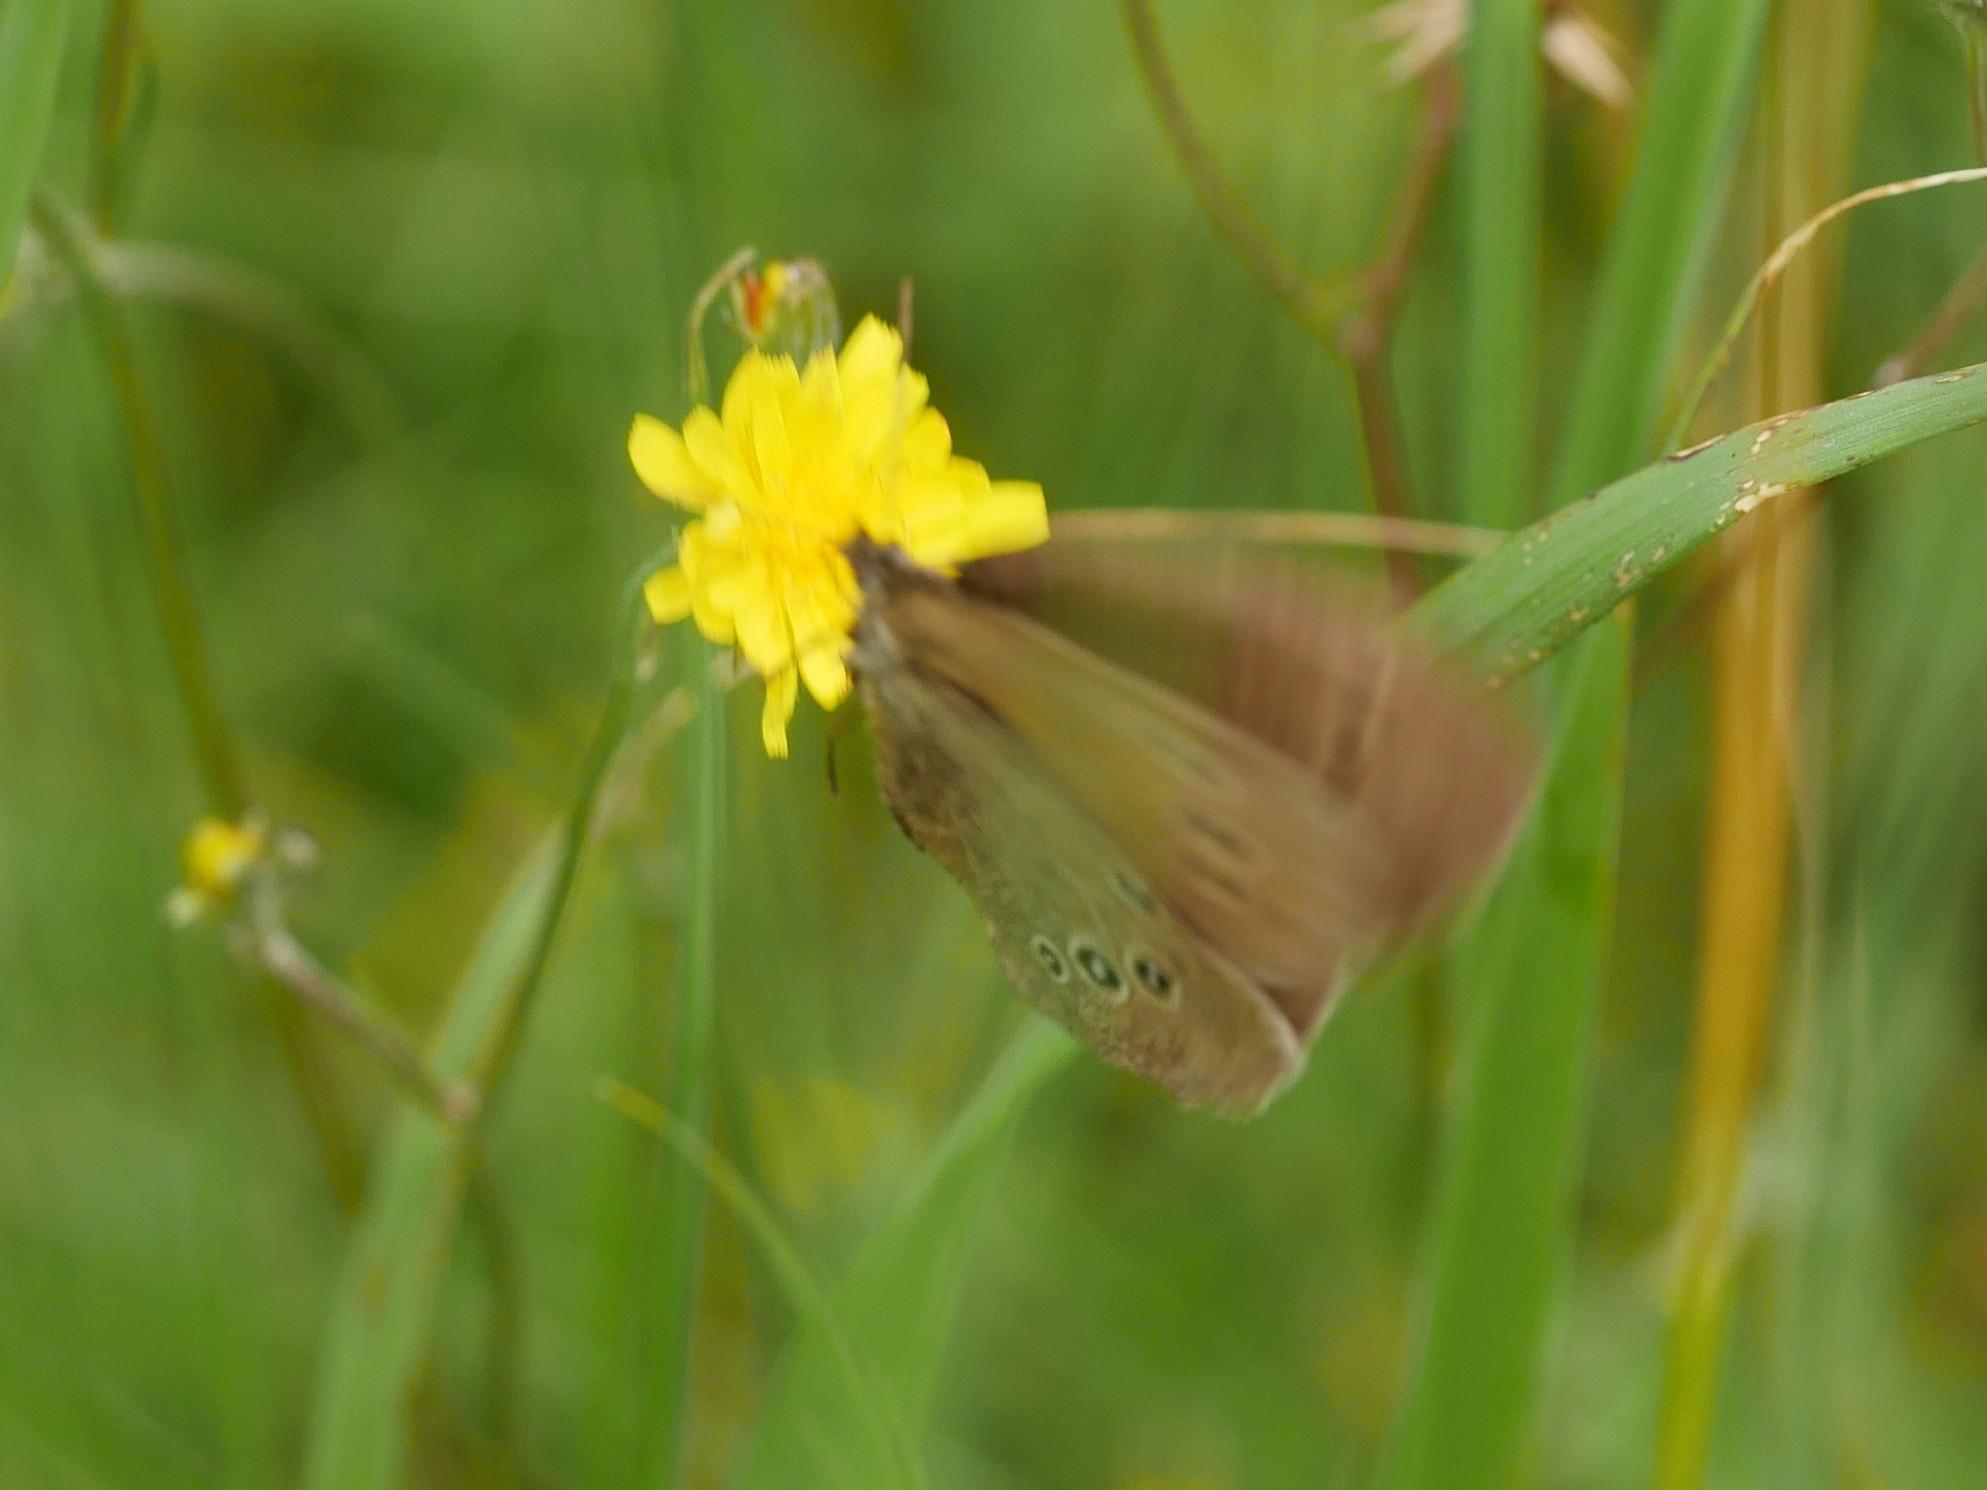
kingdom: Animalia
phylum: Arthropoda
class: Insecta
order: Lepidoptera
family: Nymphalidae
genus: Aphantopus
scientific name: Aphantopus hyperantus
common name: Ringlet
